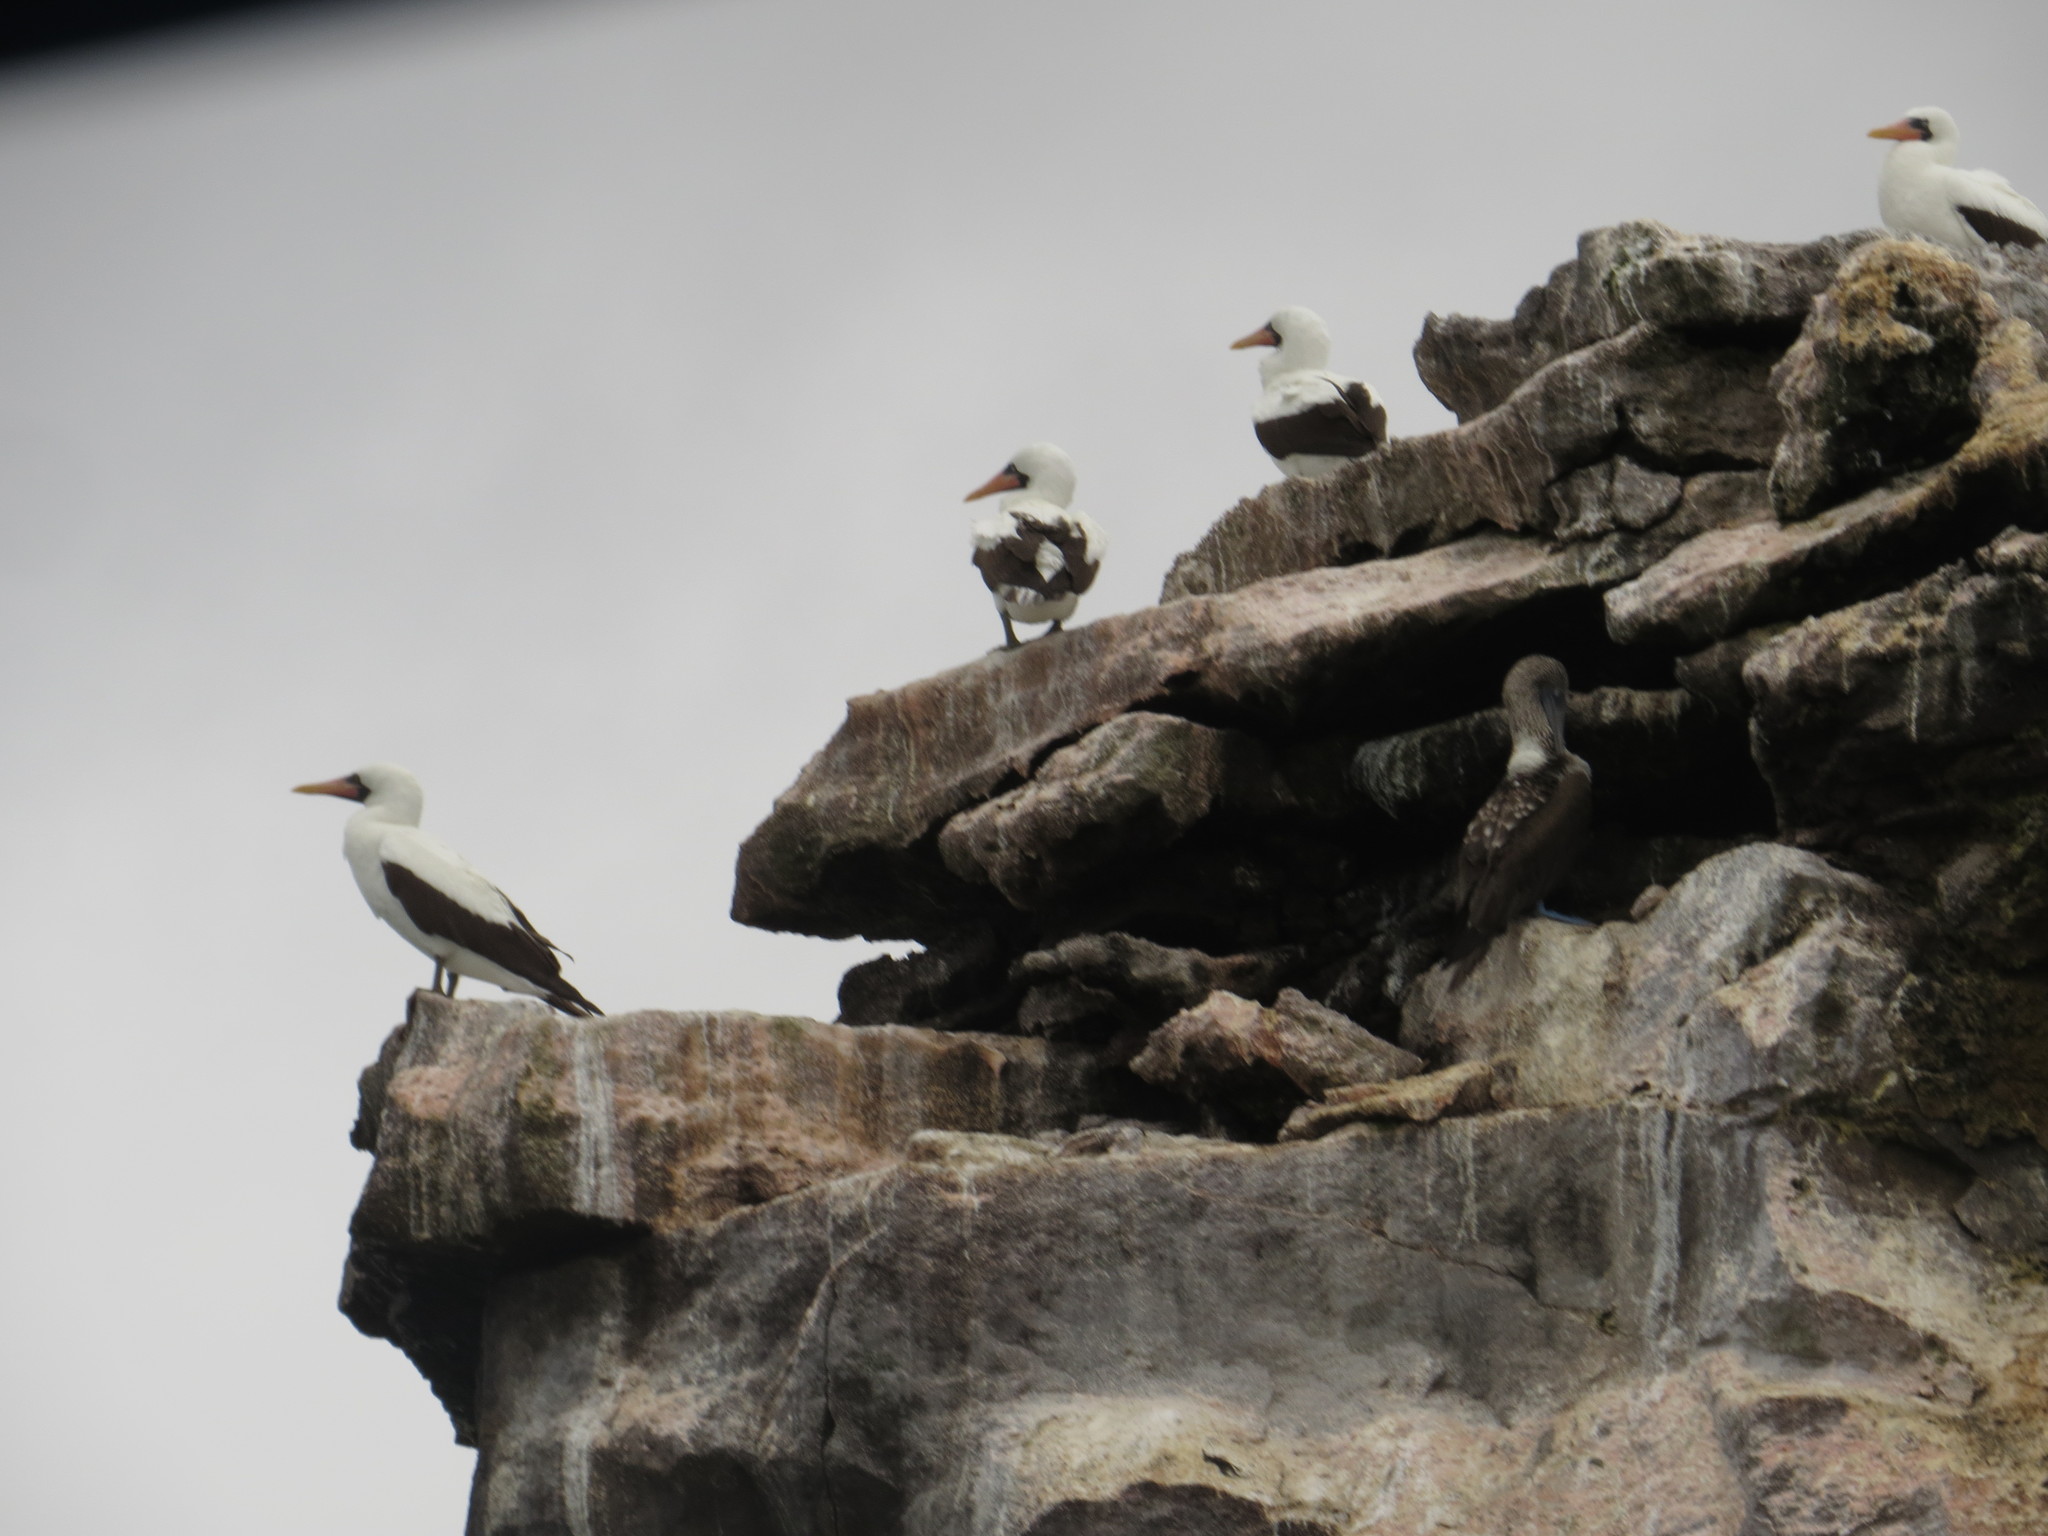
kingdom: Animalia
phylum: Chordata
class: Aves
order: Suliformes
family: Sulidae
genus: Sula
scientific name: Sula nebouxii
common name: Blue-footed booby
